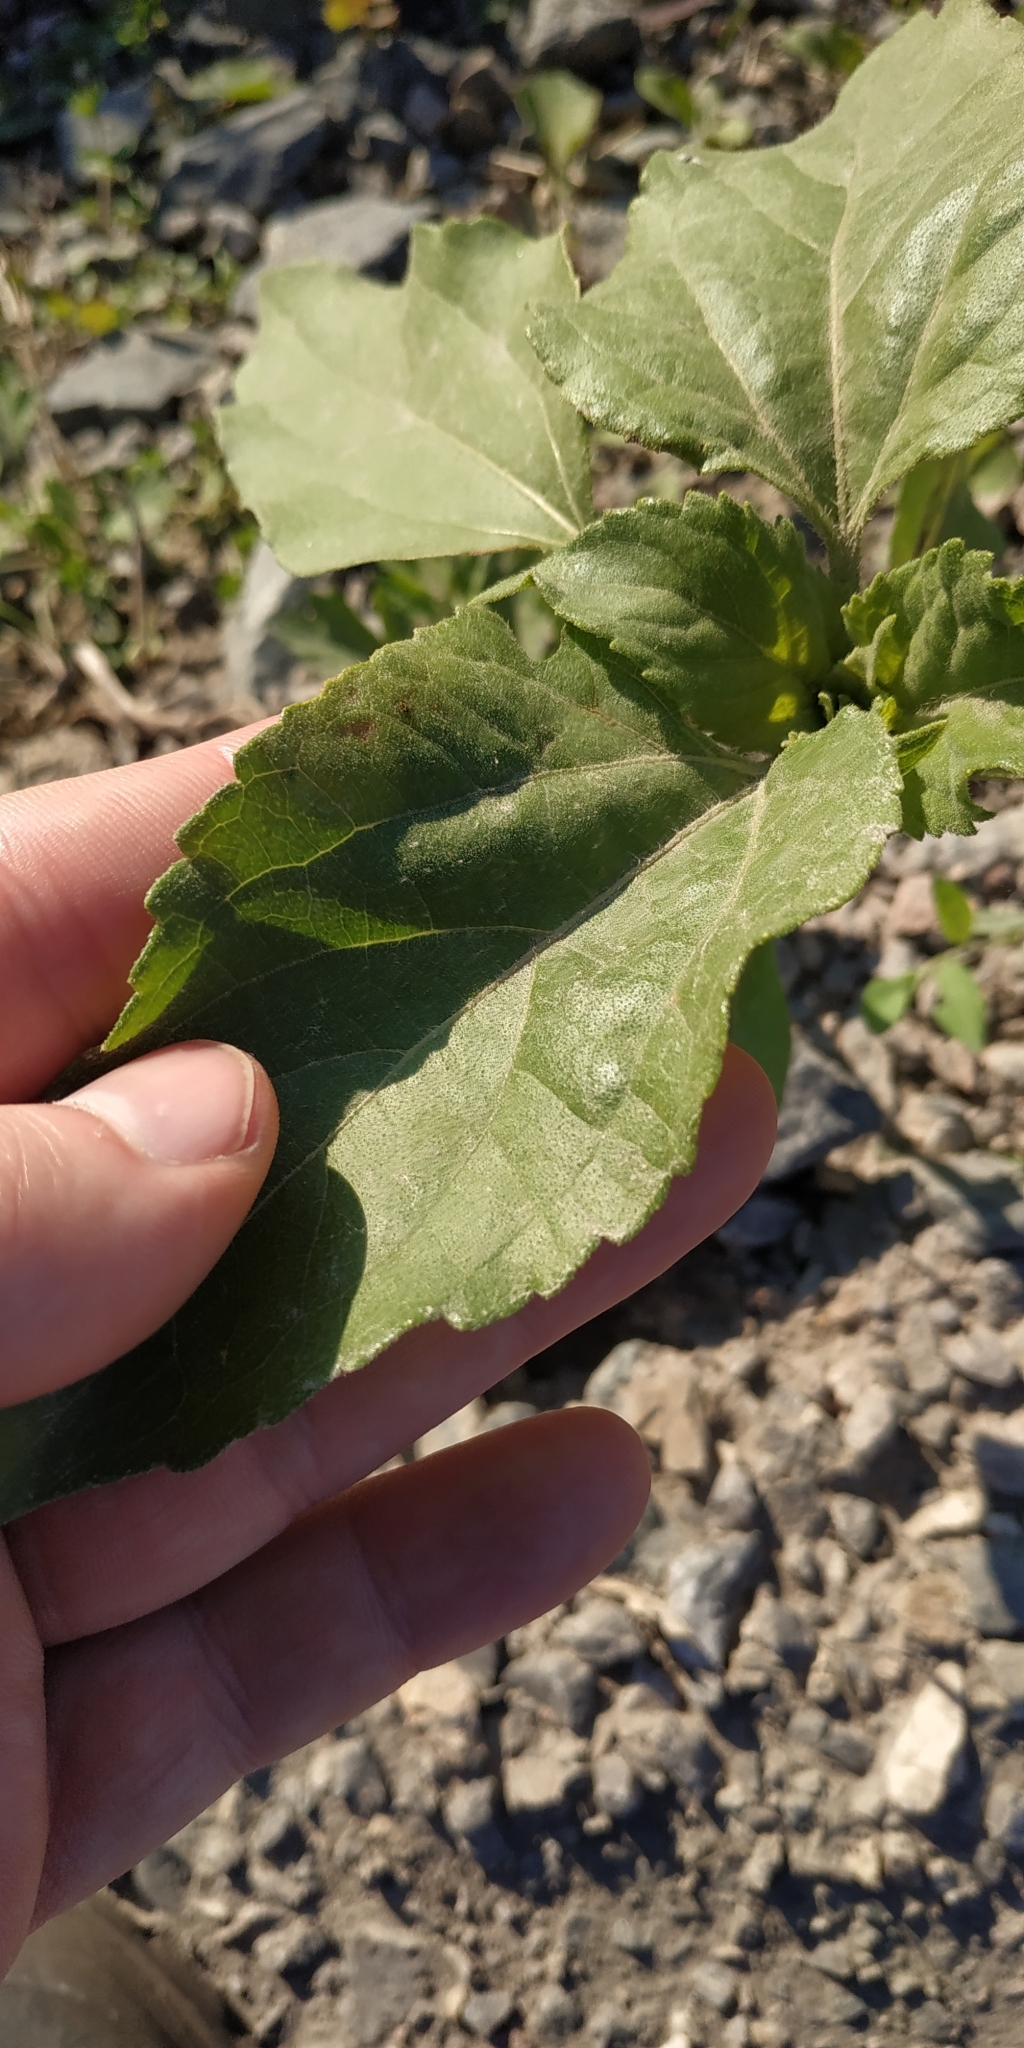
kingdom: Plantae
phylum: Tracheophyta
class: Magnoliopsida
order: Asterales
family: Asteraceae
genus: Helianthus
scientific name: Helianthus annuus
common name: Sunflower
